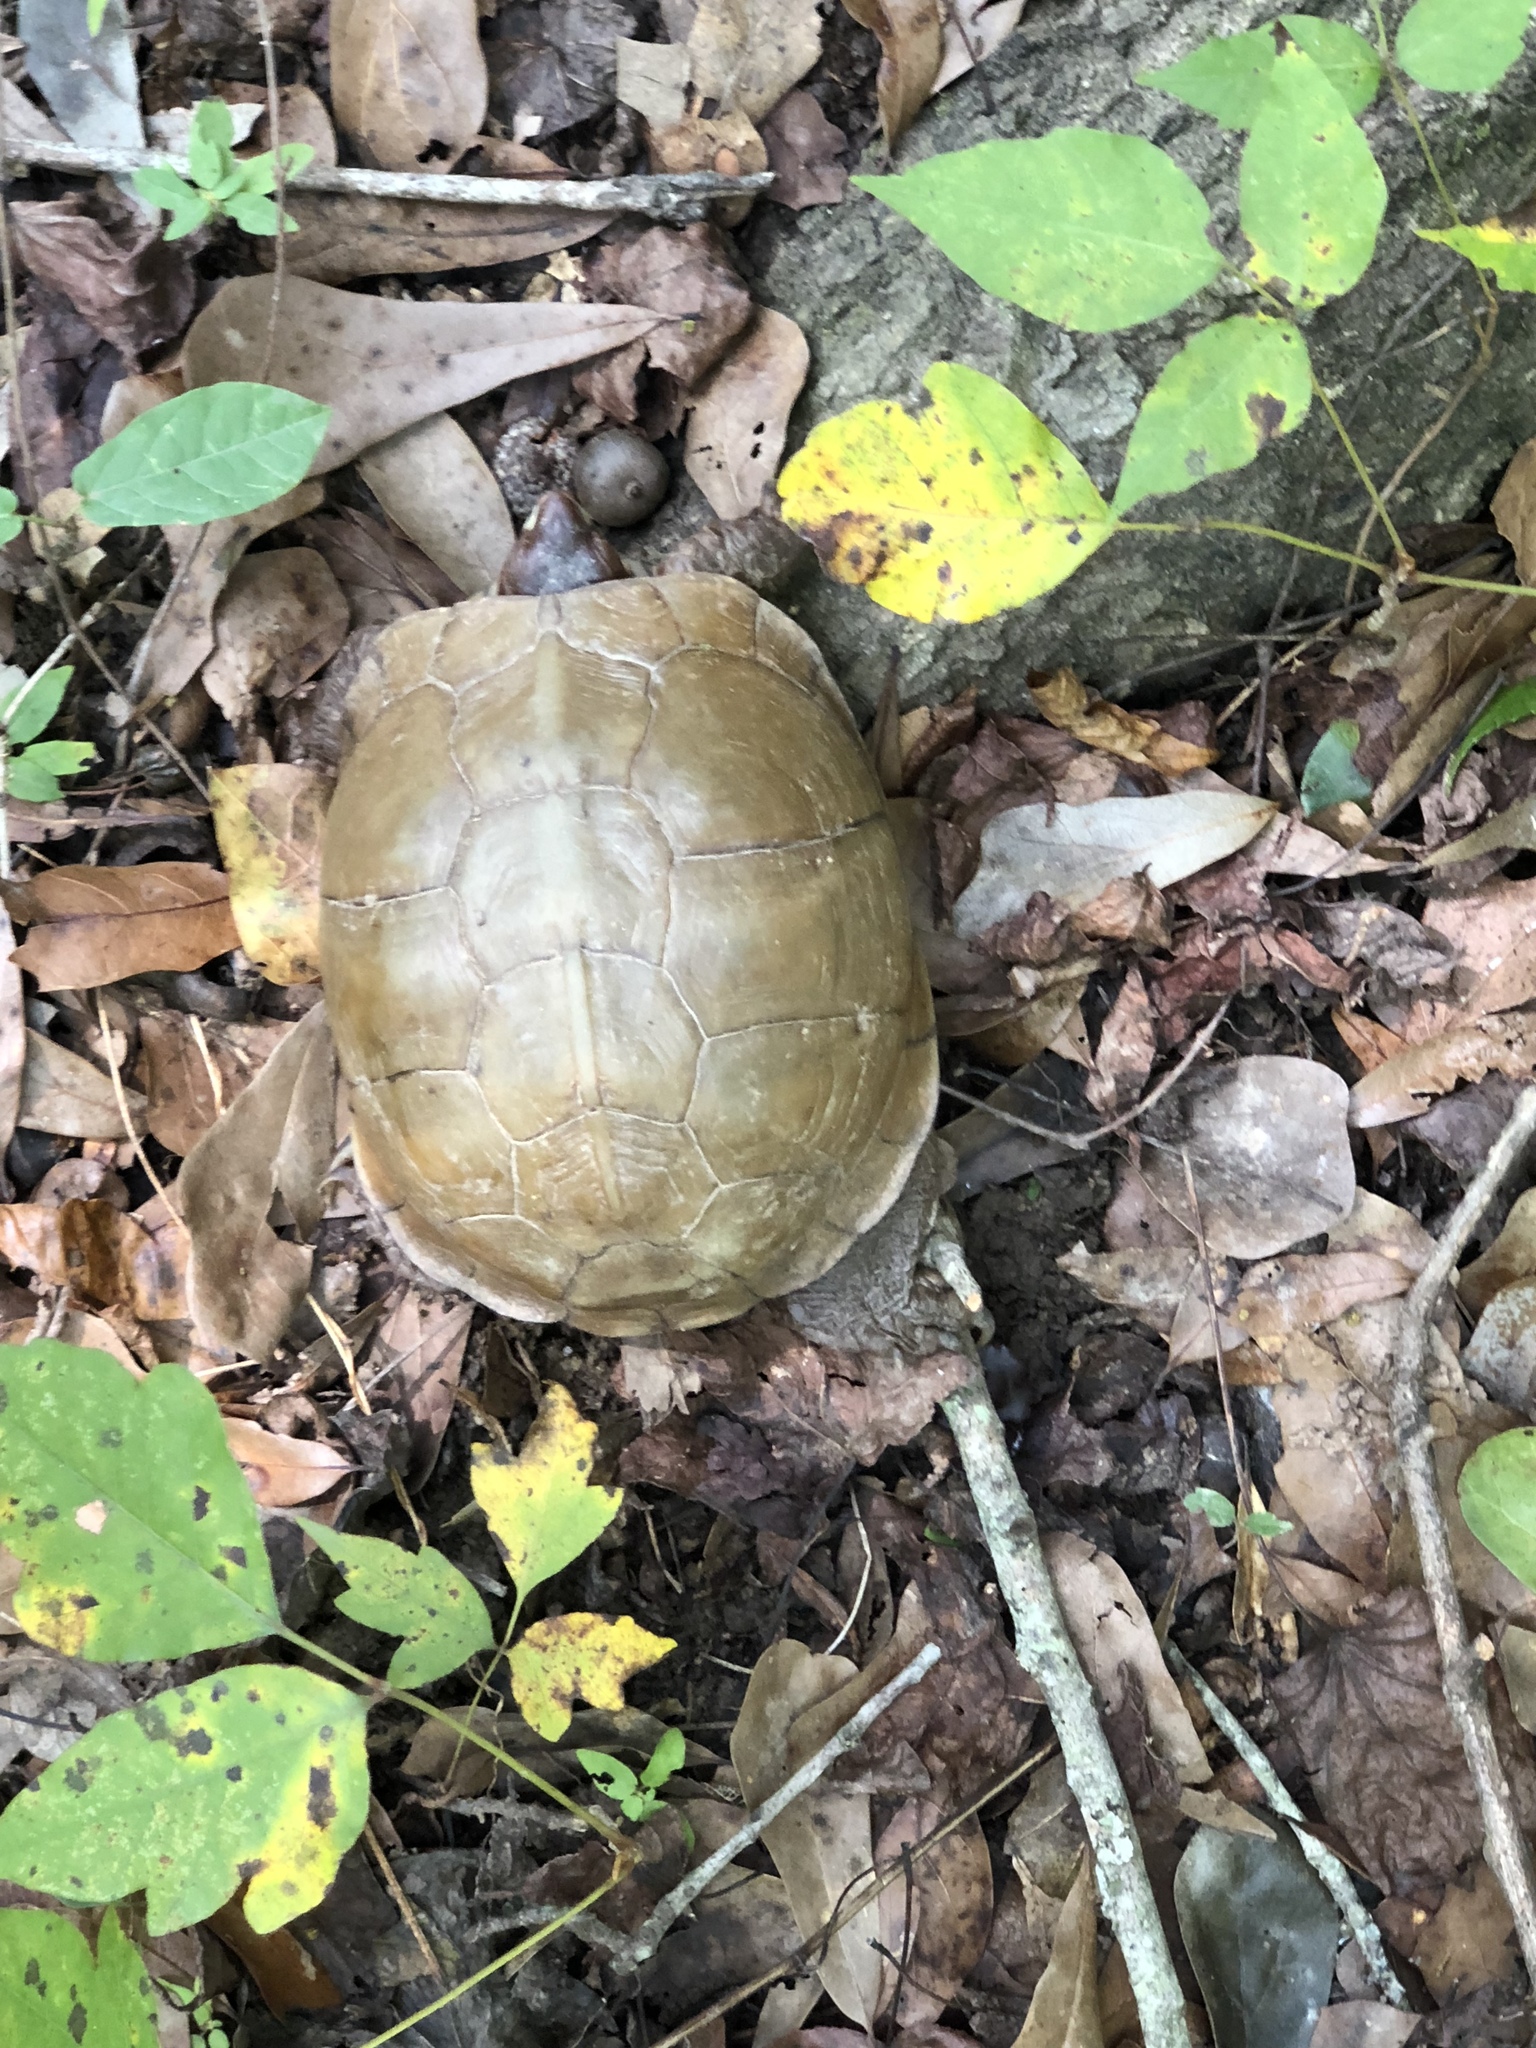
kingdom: Animalia
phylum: Chordata
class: Testudines
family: Emydidae
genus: Terrapene
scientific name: Terrapene carolina
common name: Common box turtle
